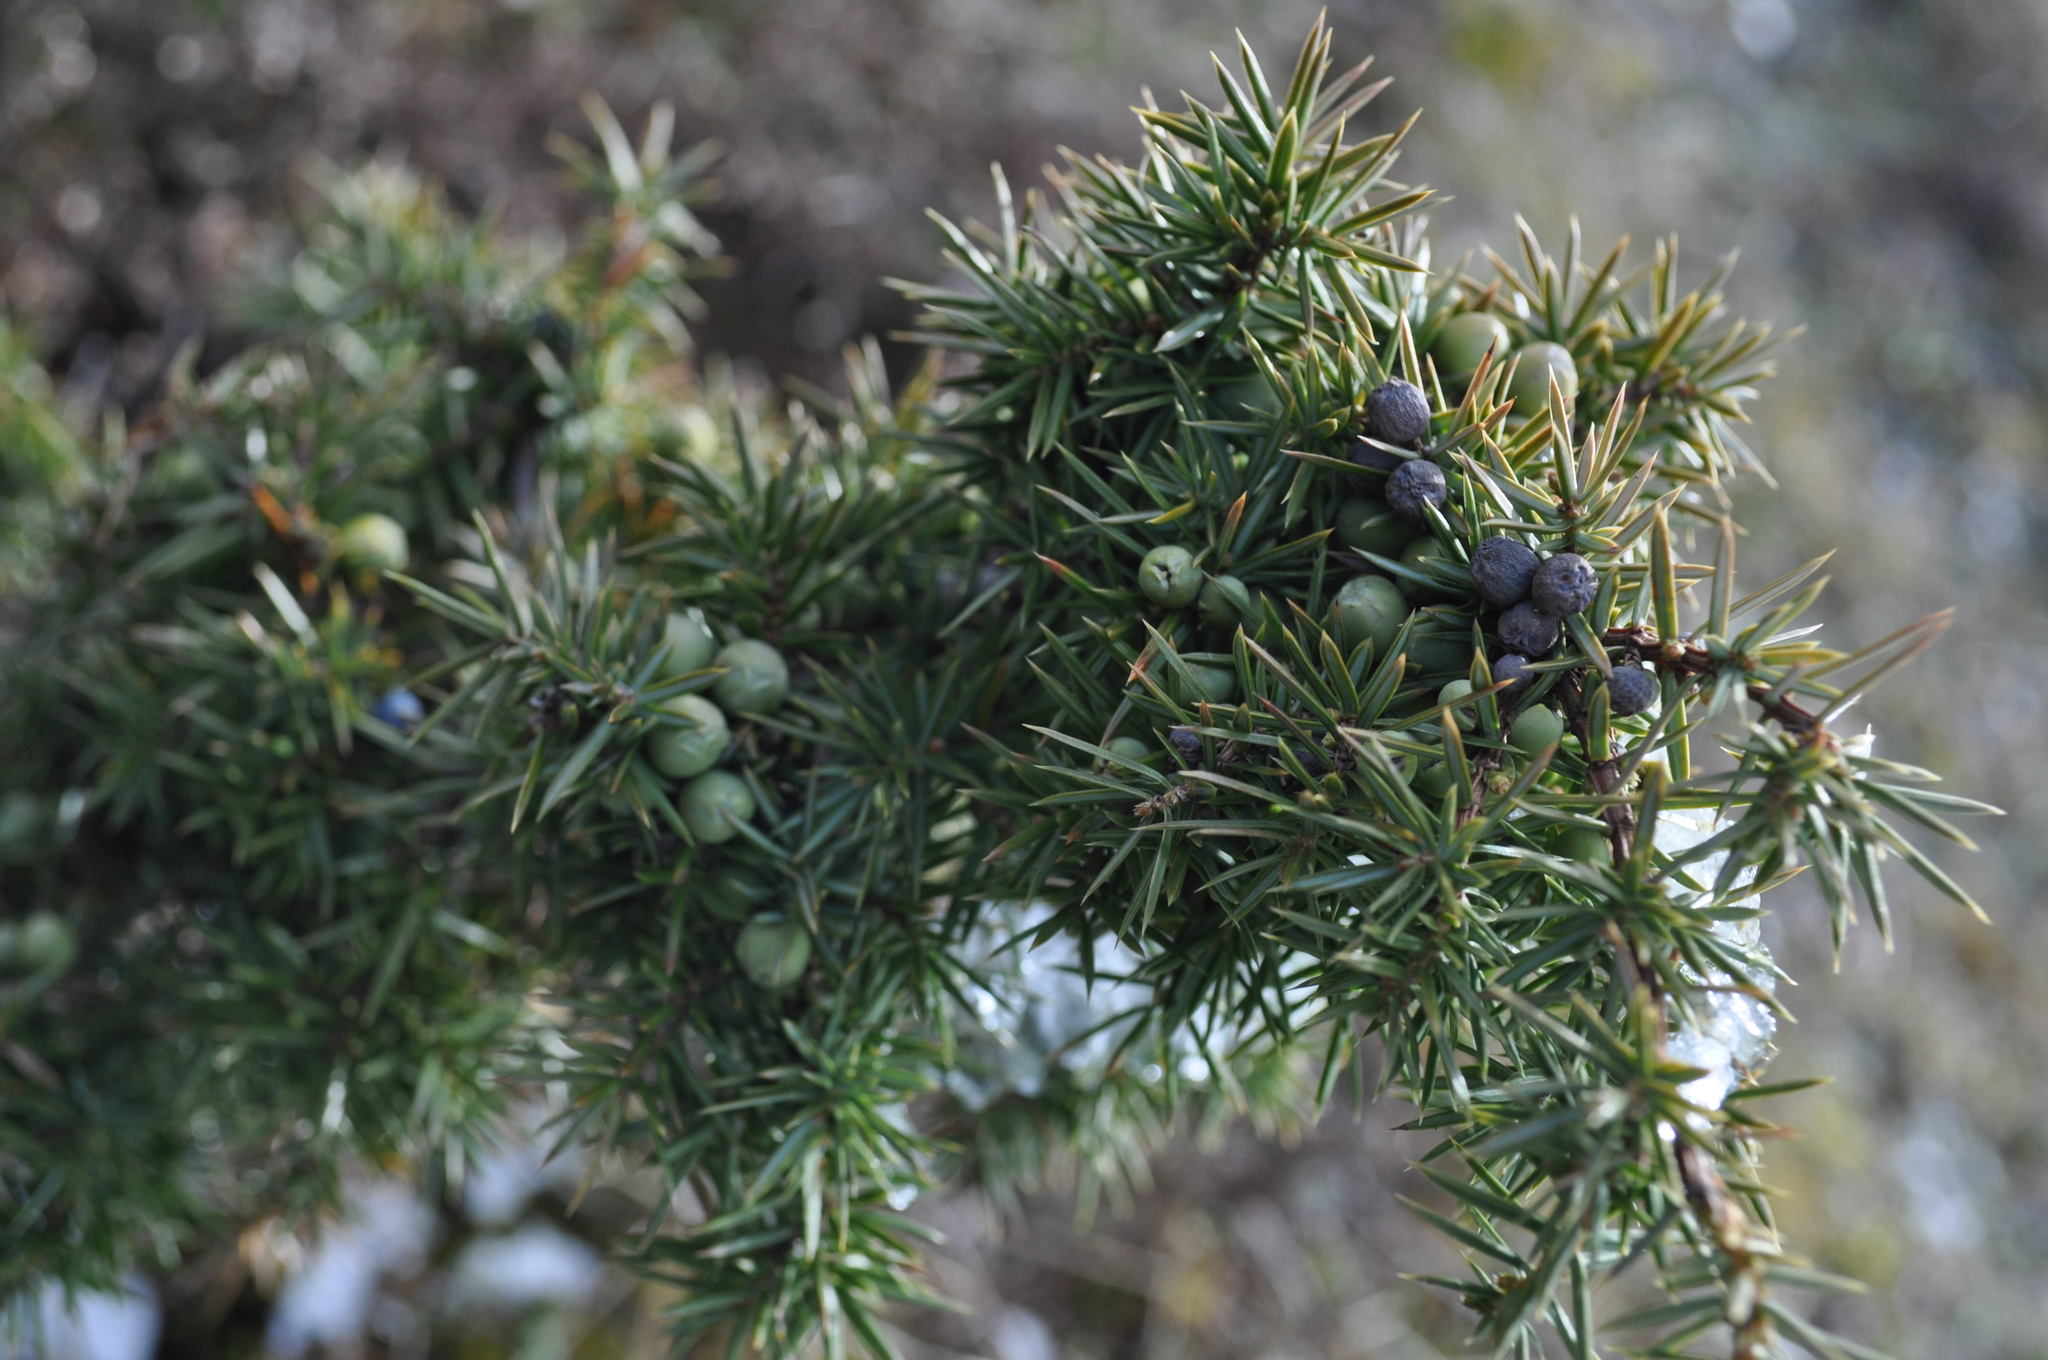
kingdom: Plantae
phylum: Tracheophyta
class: Pinopsida
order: Pinales
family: Cupressaceae
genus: Juniperus
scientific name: Juniperus communis
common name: Common juniper
